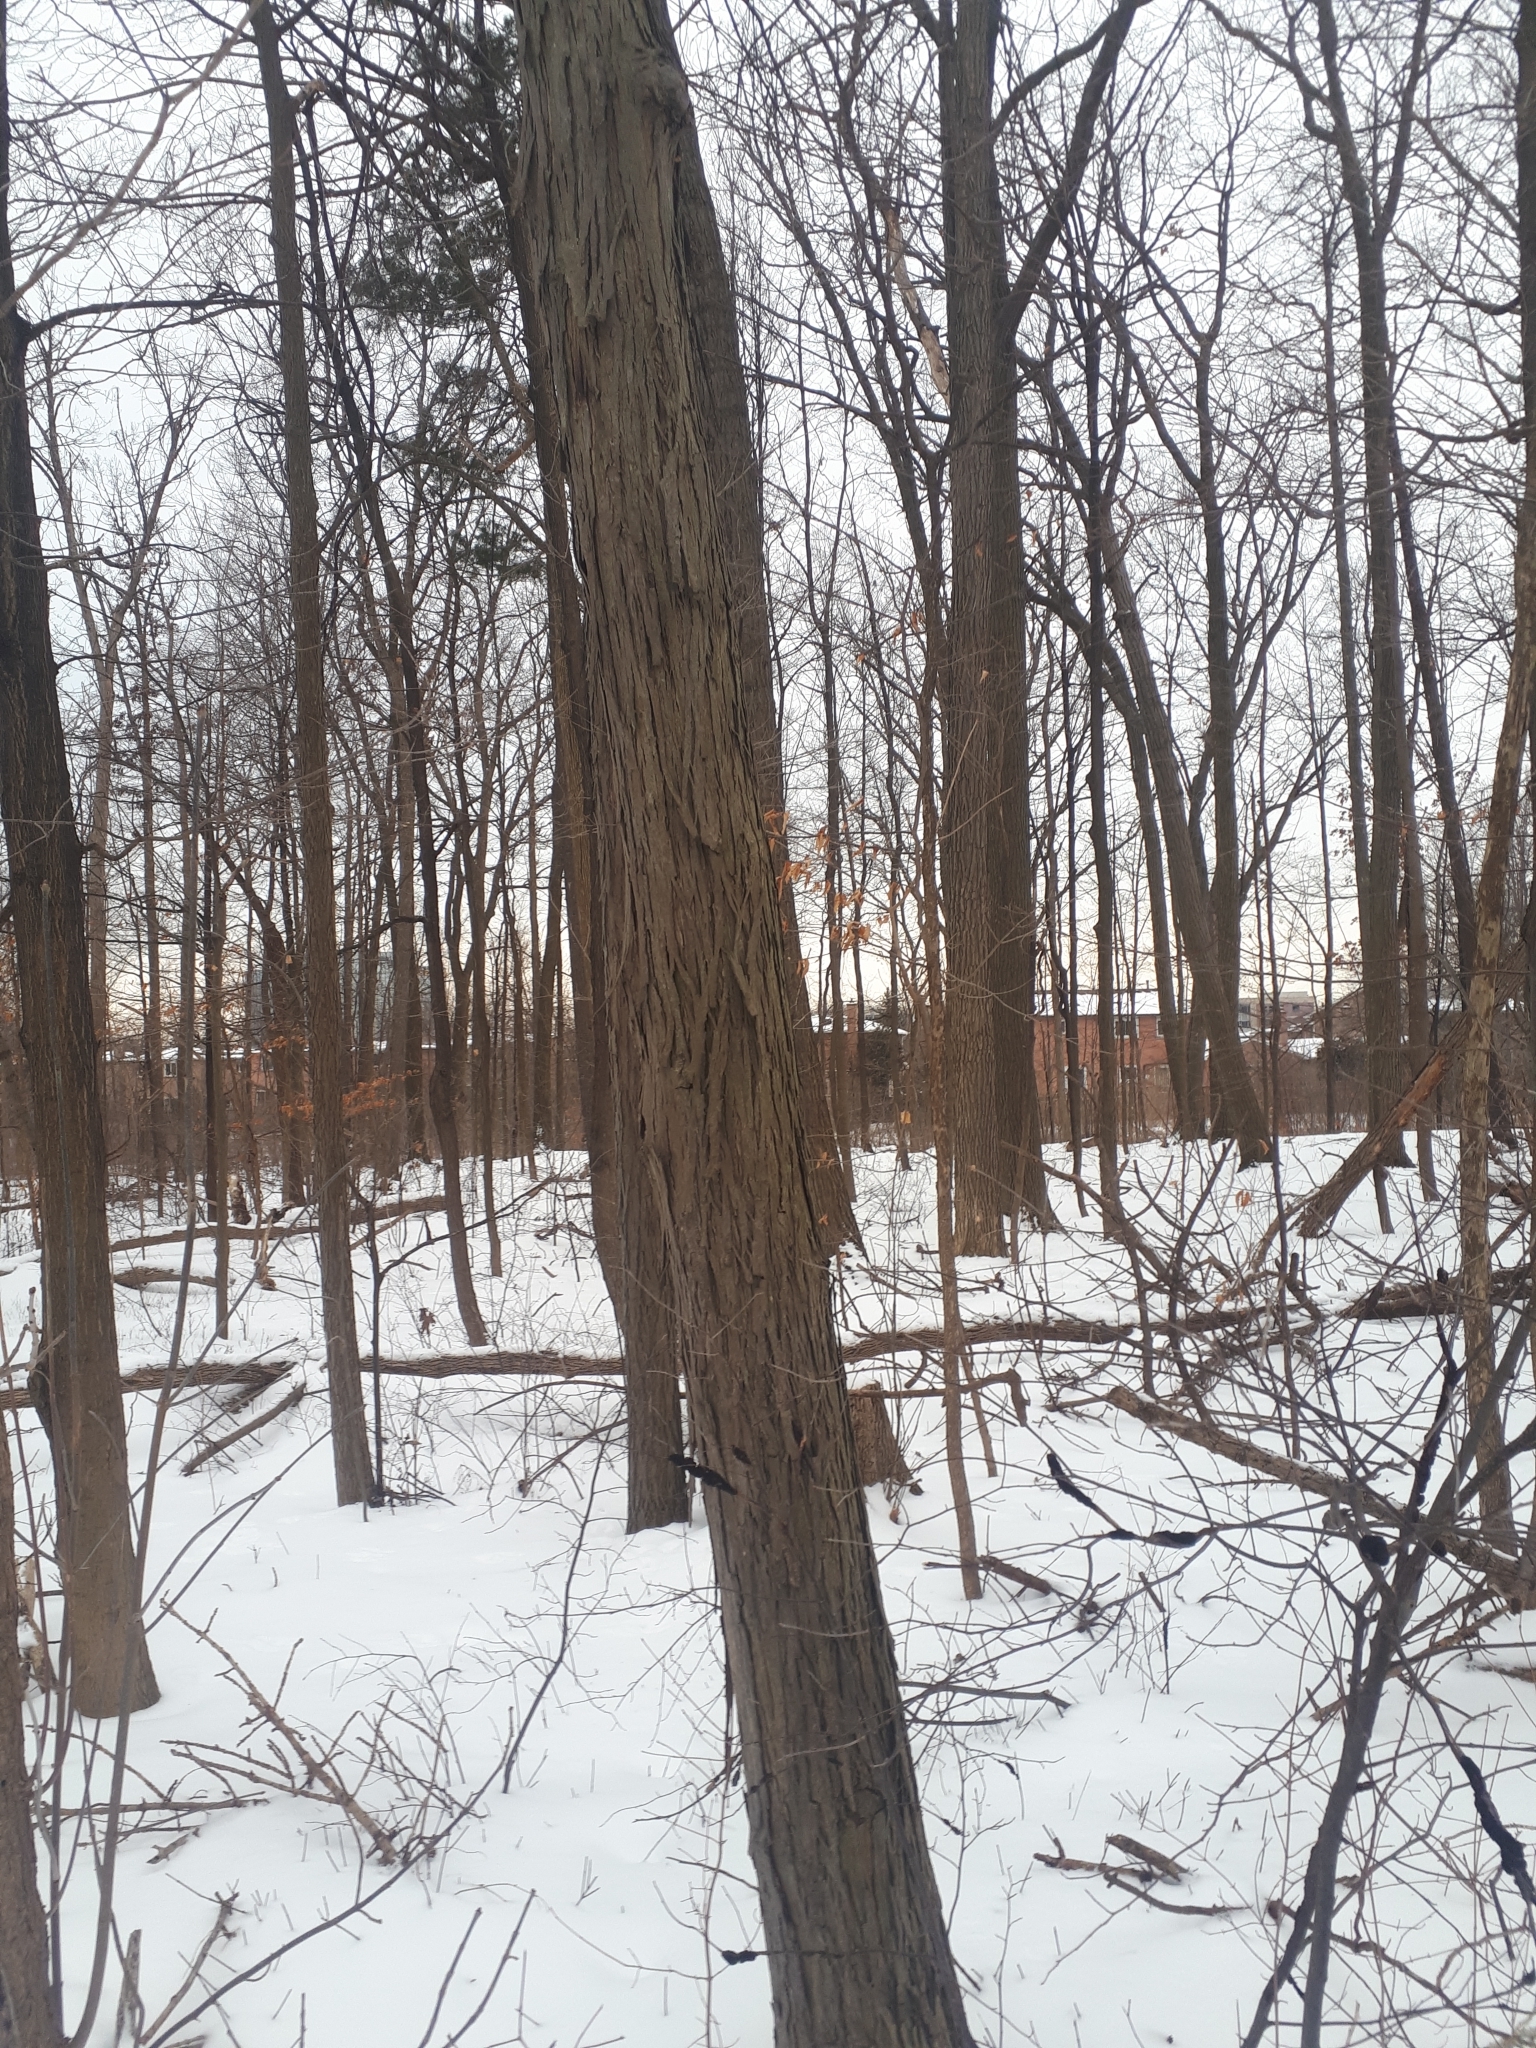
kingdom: Plantae
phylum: Tracheophyta
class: Magnoliopsida
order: Fagales
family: Juglandaceae
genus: Carya
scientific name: Carya ovata
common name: Shagbark hickory
